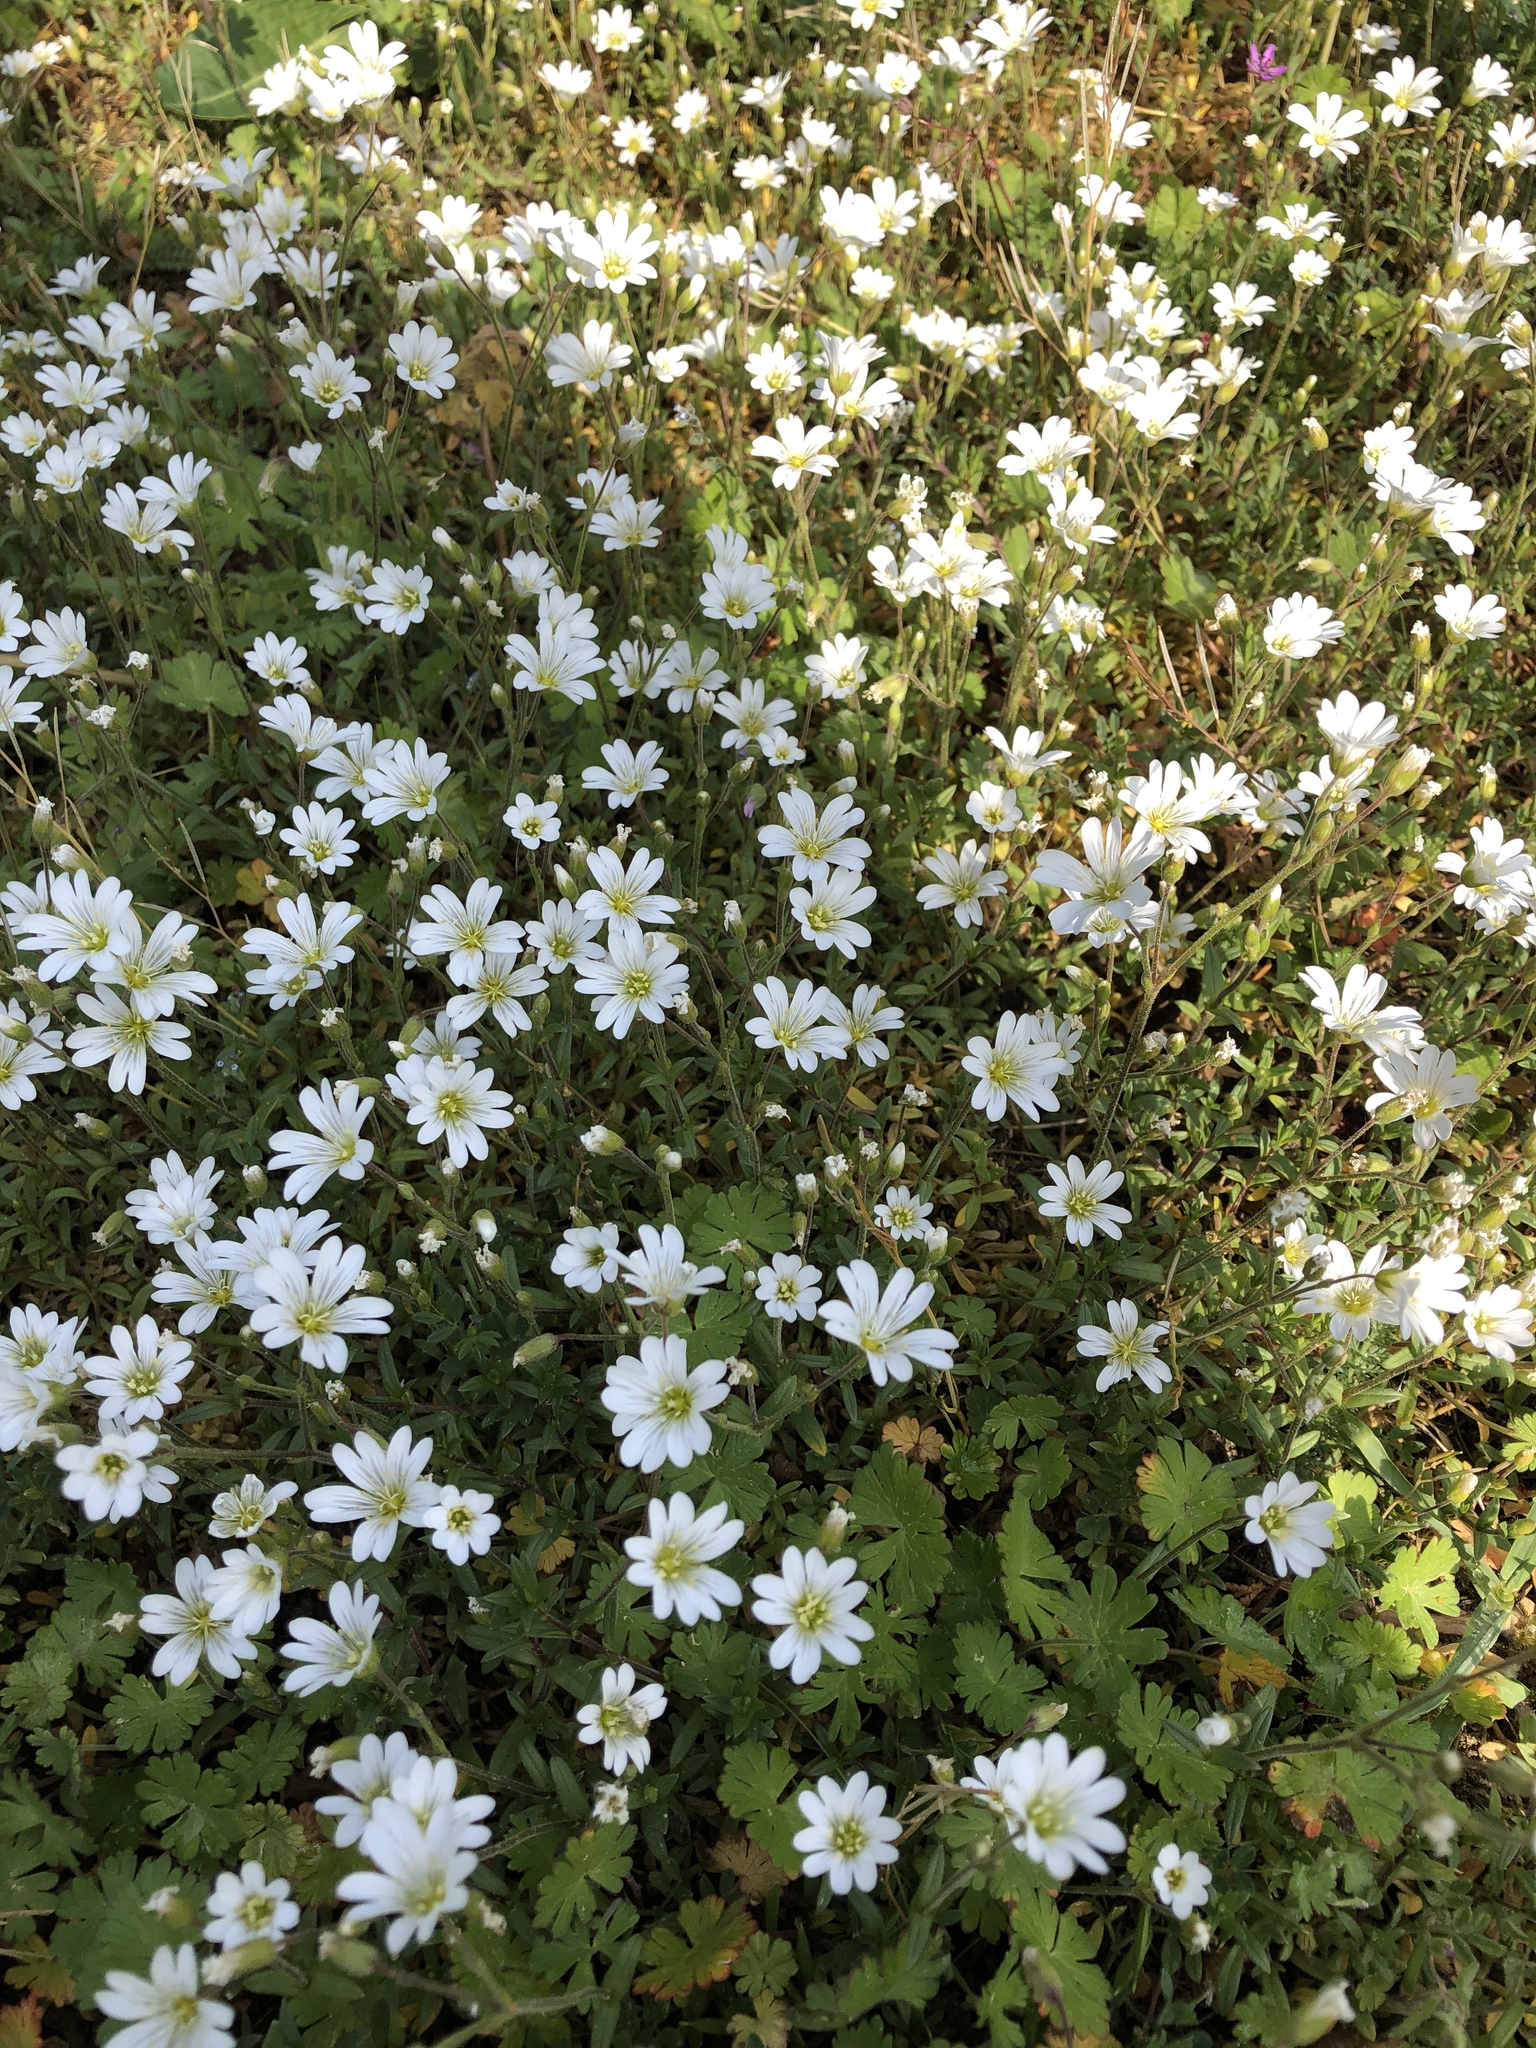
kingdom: Plantae
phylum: Tracheophyta
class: Magnoliopsida
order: Caryophyllales
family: Caryophyllaceae
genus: Cerastium
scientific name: Cerastium arvense
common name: Field mouse-ear
